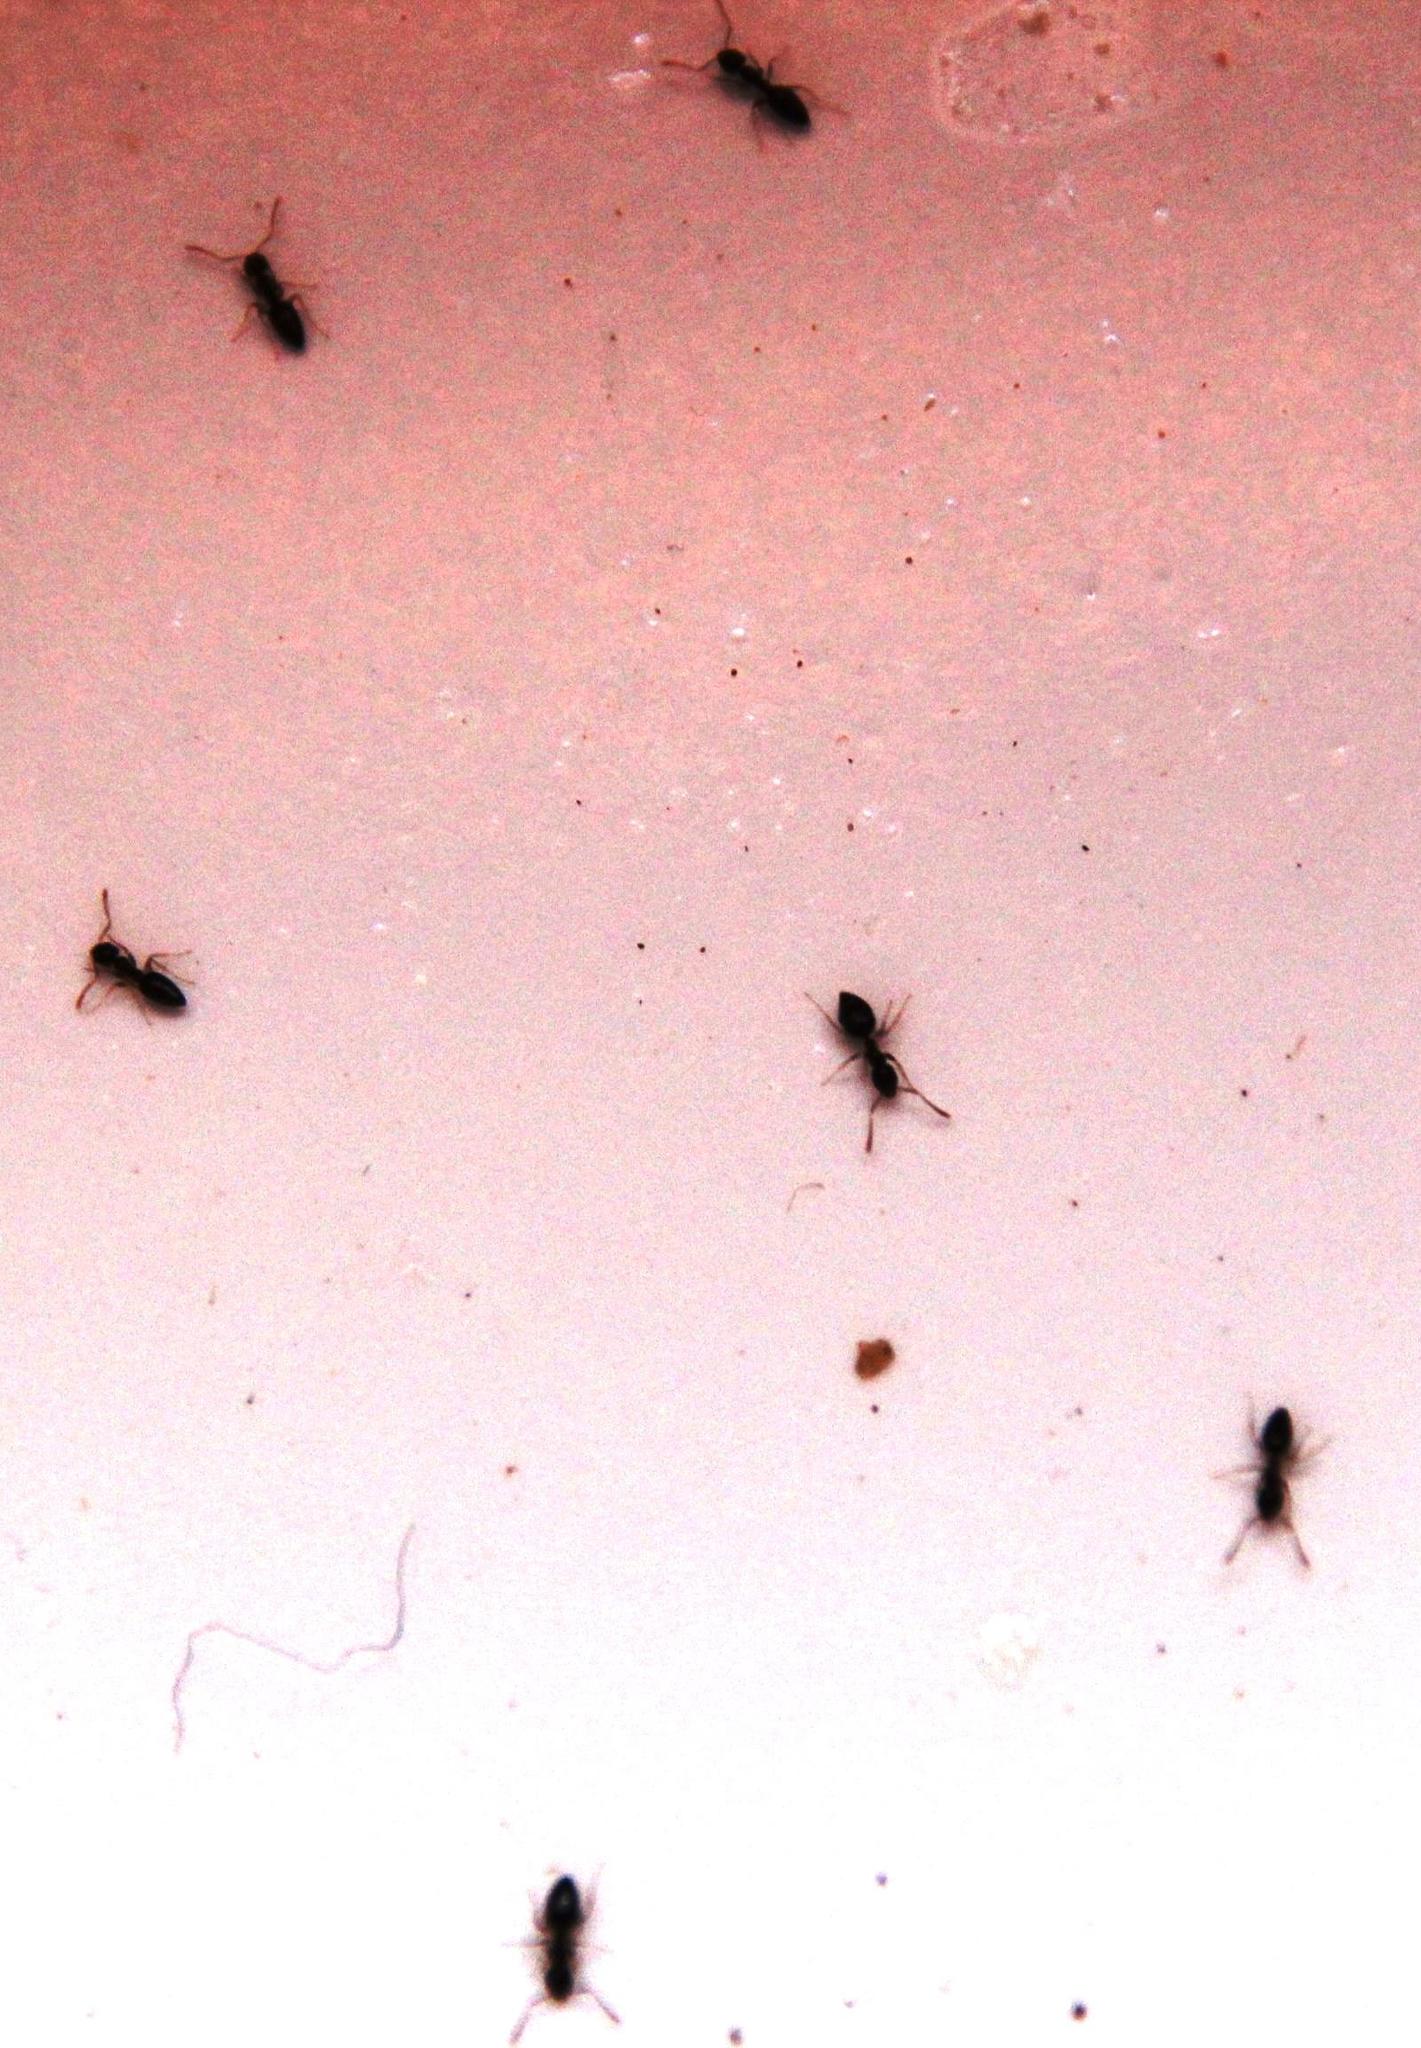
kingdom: Animalia
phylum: Arthropoda
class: Insecta
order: Hymenoptera
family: Formicidae
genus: Tapinoma
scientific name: Tapinoma pallipes
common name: Ant
